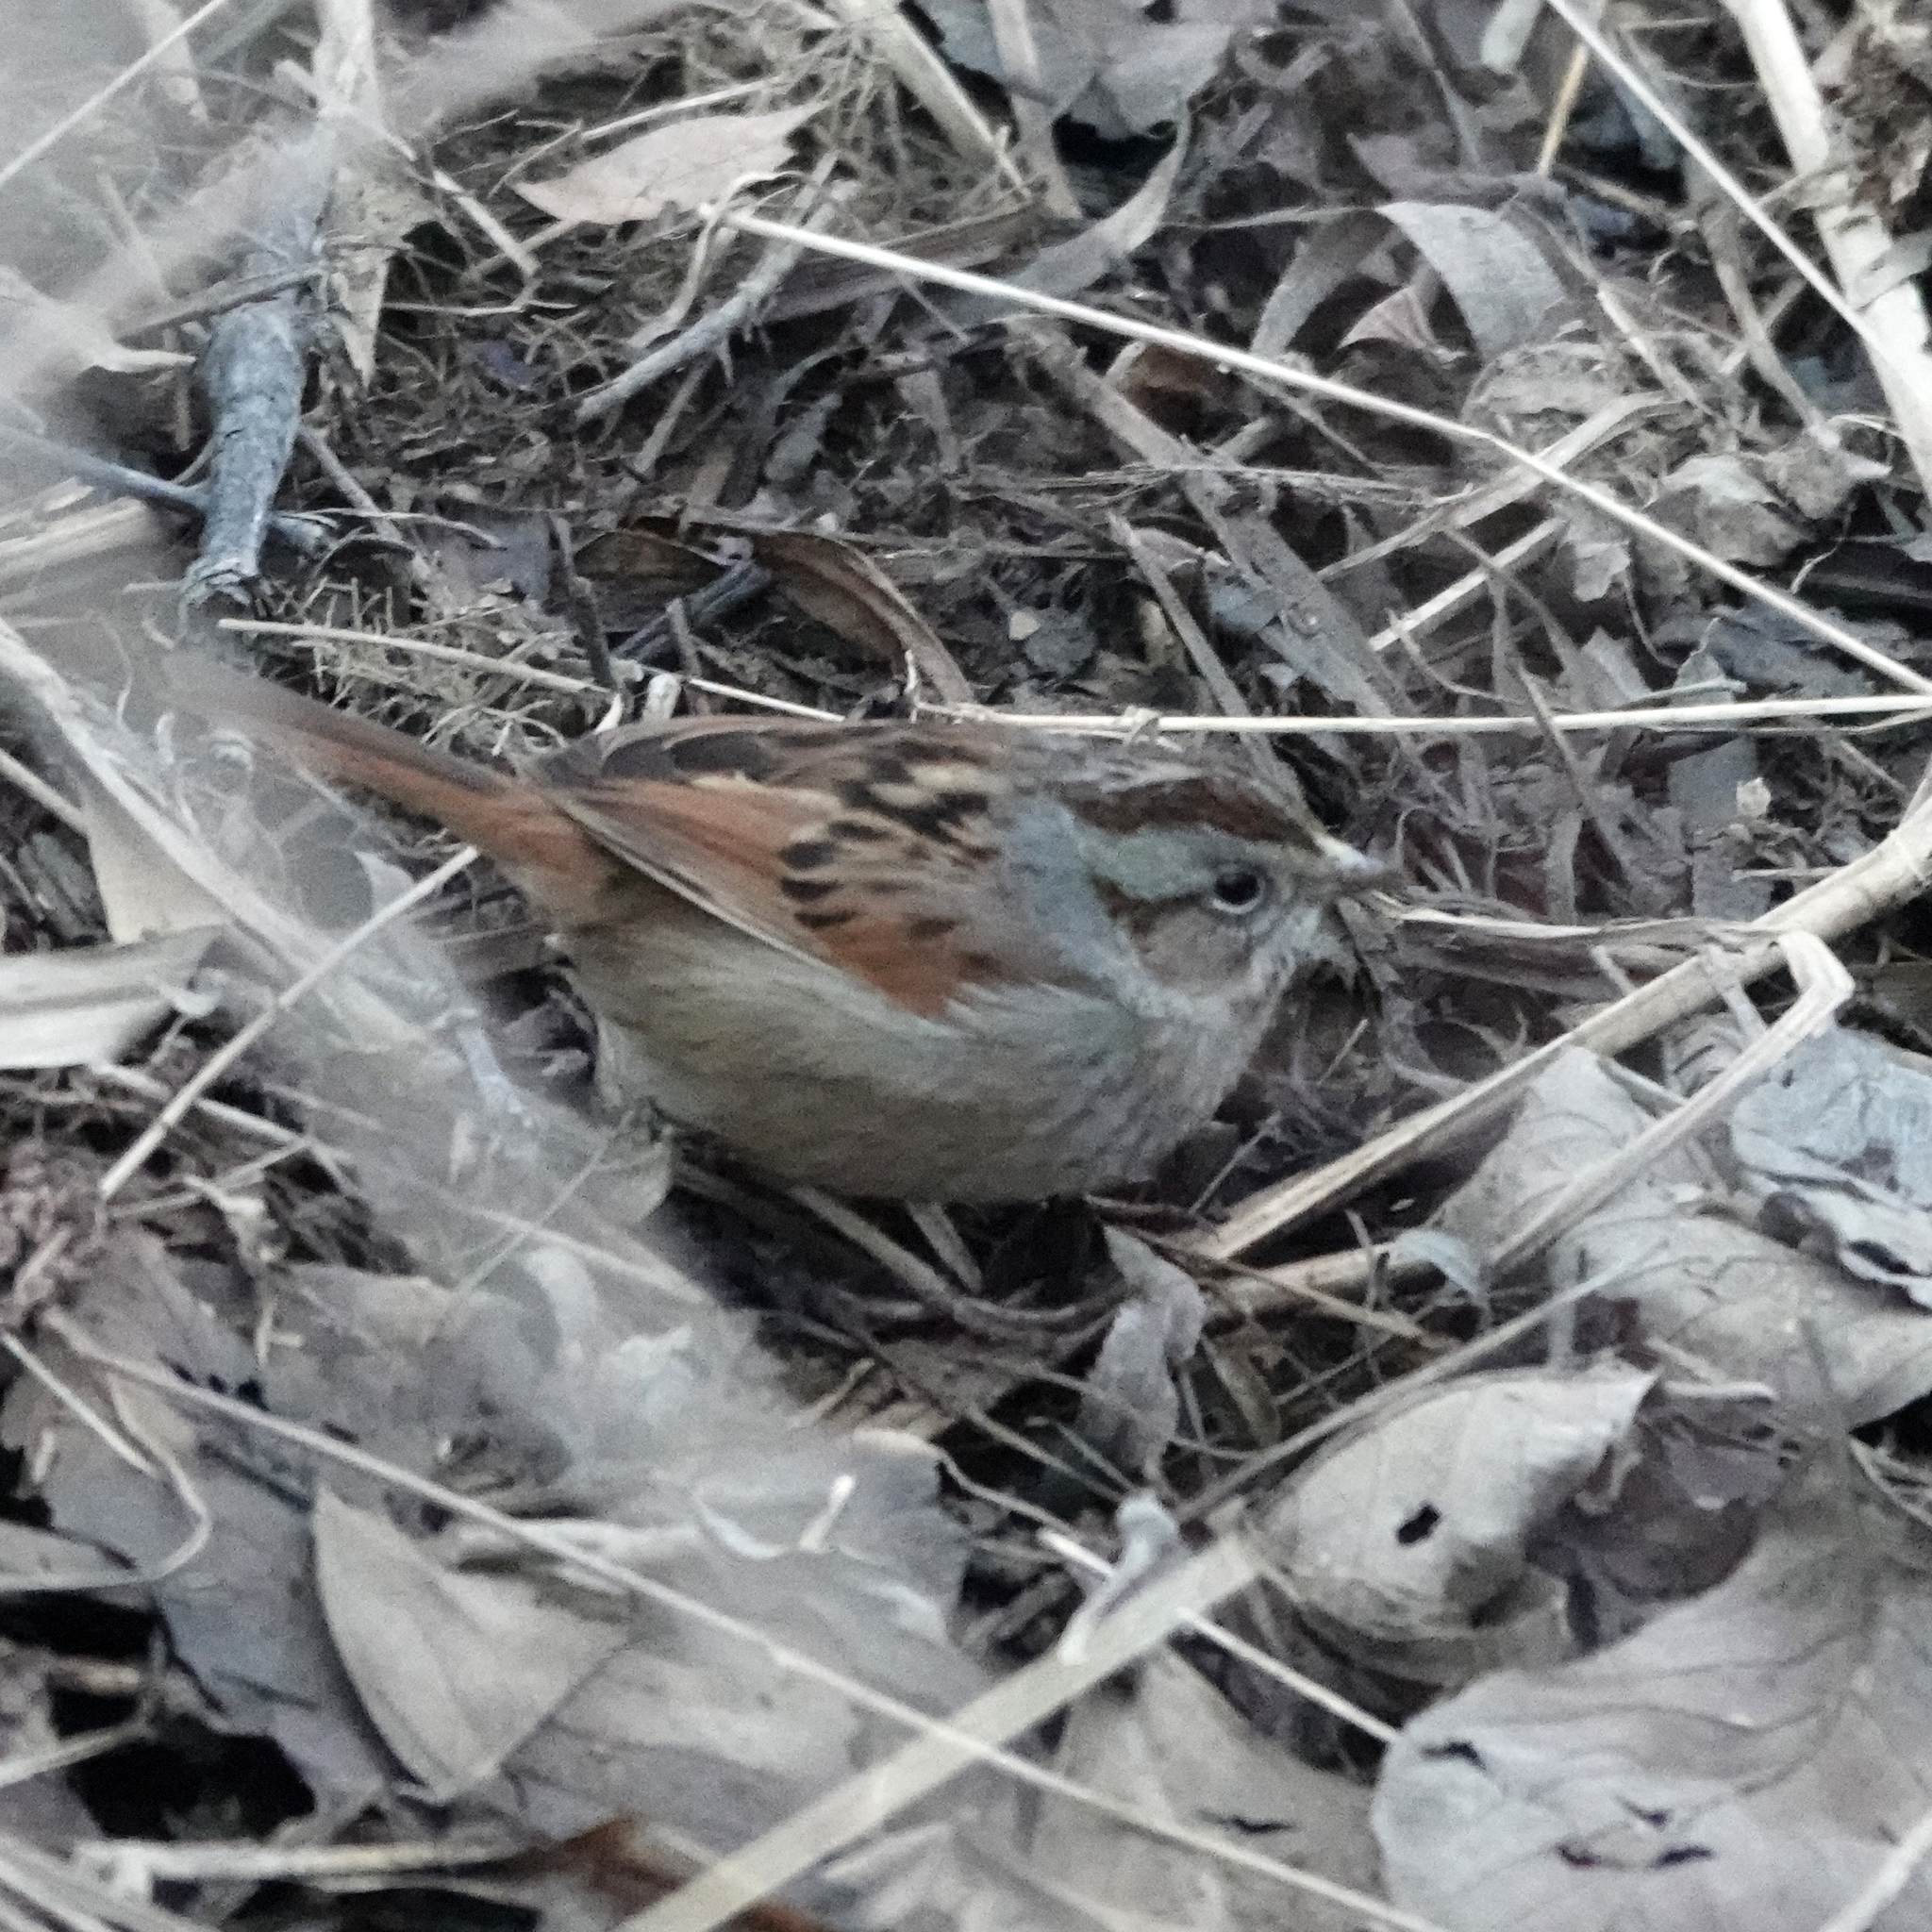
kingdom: Animalia
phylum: Chordata
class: Aves
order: Passeriformes
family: Passerellidae
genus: Melospiza
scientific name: Melospiza georgiana
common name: Swamp sparrow
